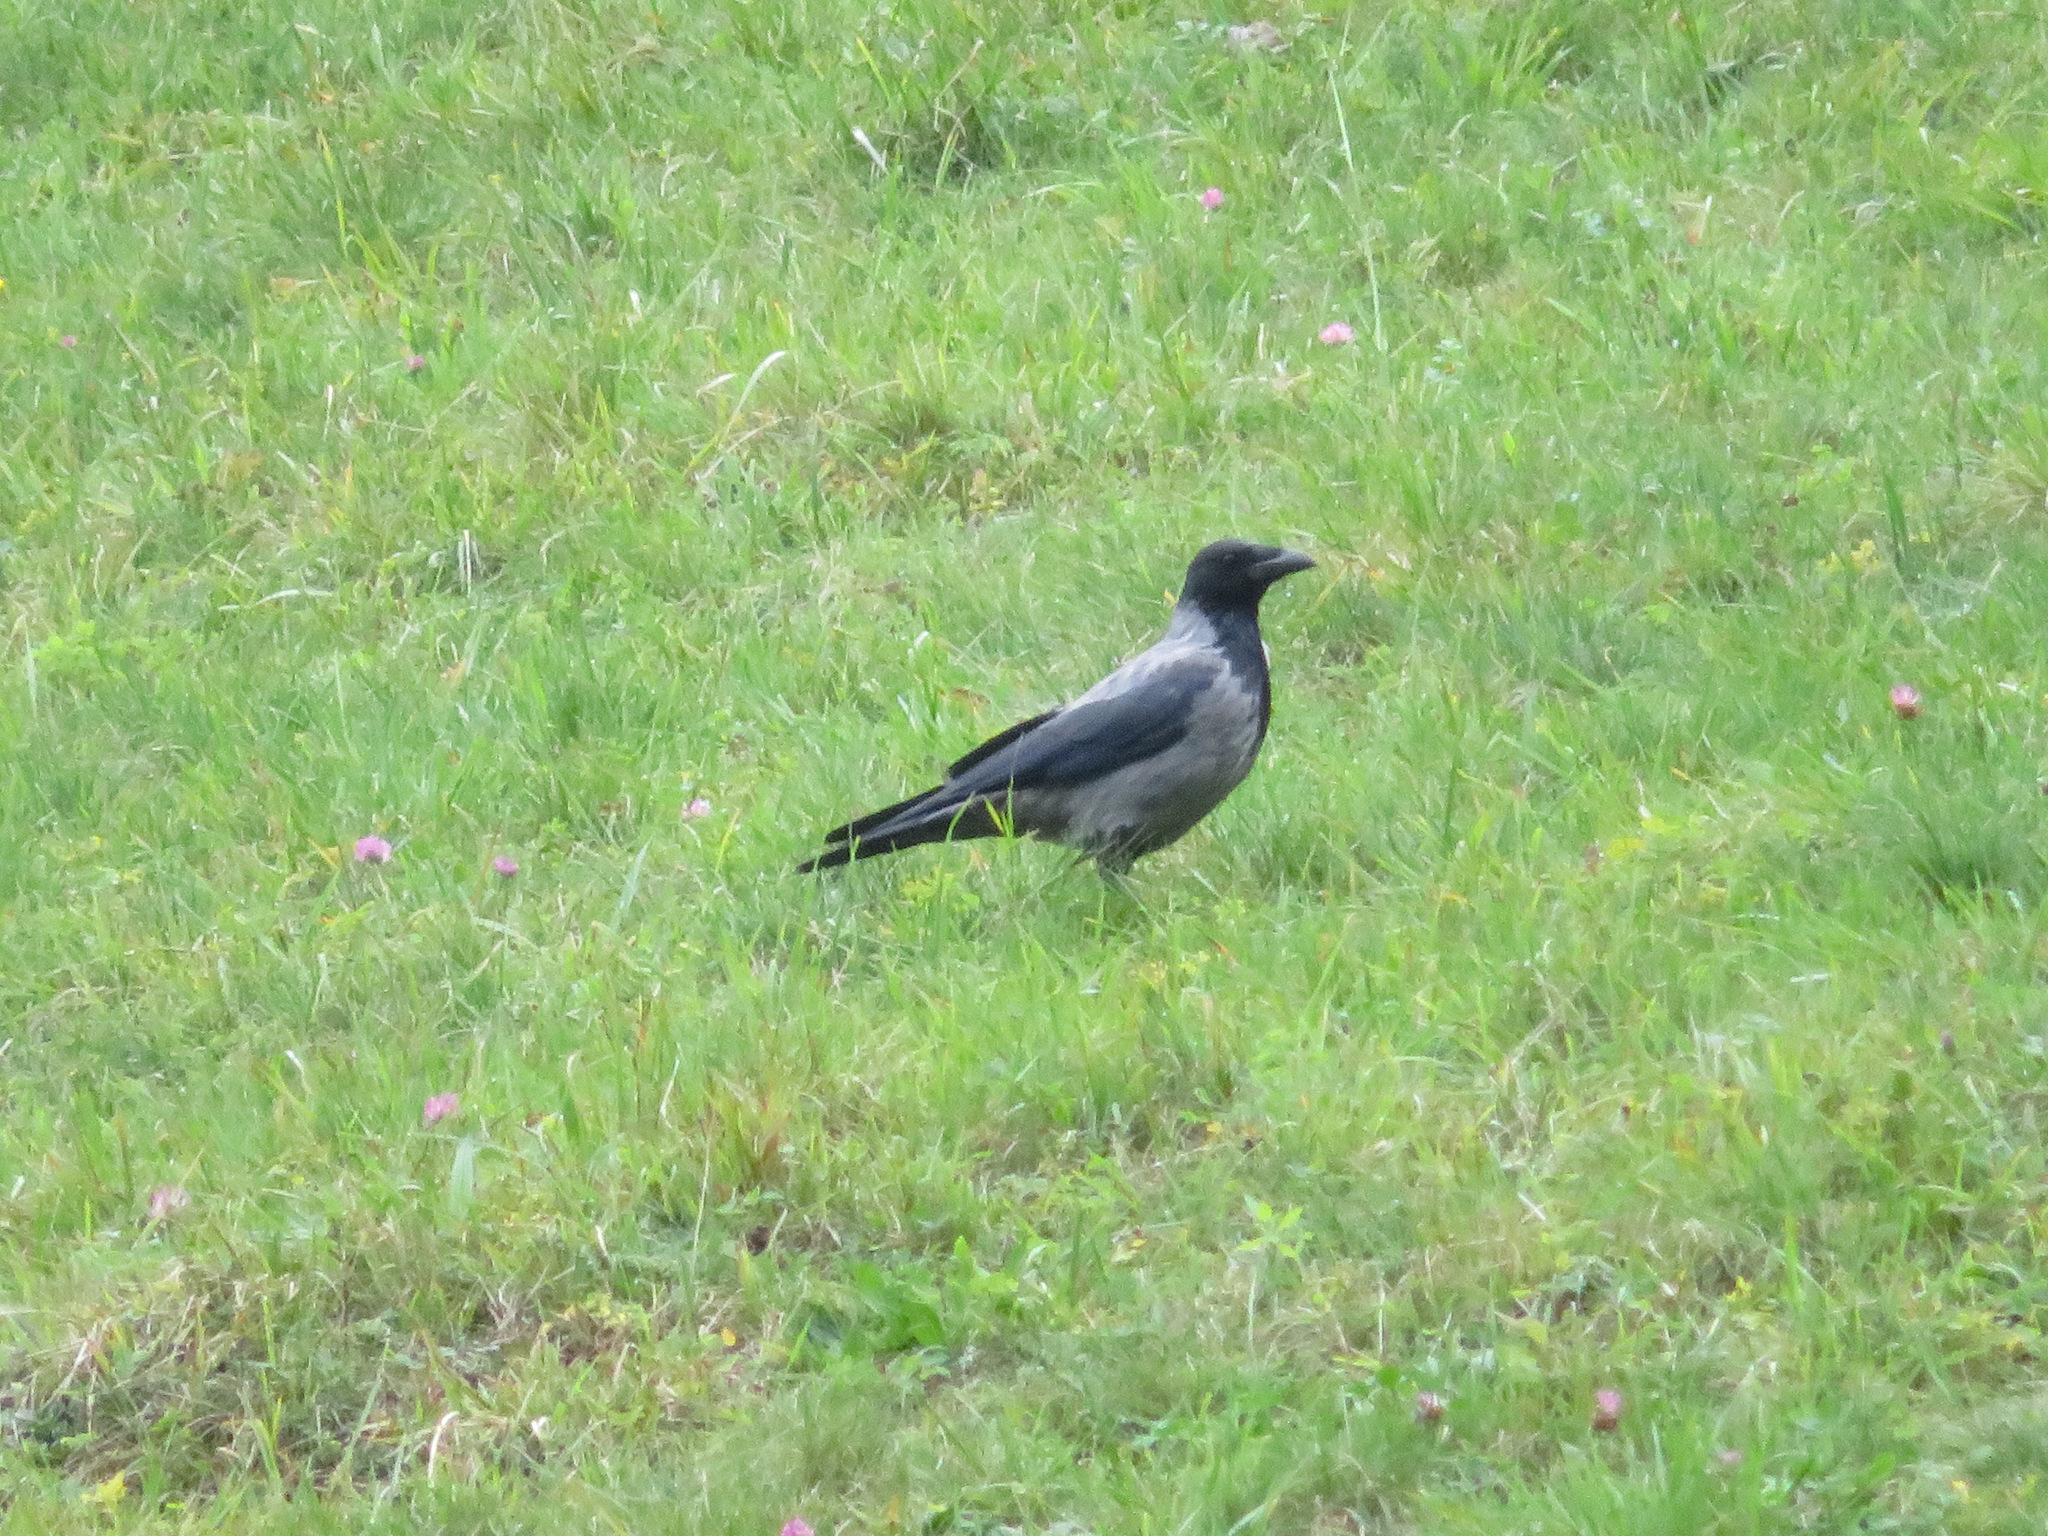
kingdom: Animalia
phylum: Chordata
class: Aves
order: Passeriformes
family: Corvidae
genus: Corvus
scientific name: Corvus cornix
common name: Hooded crow
